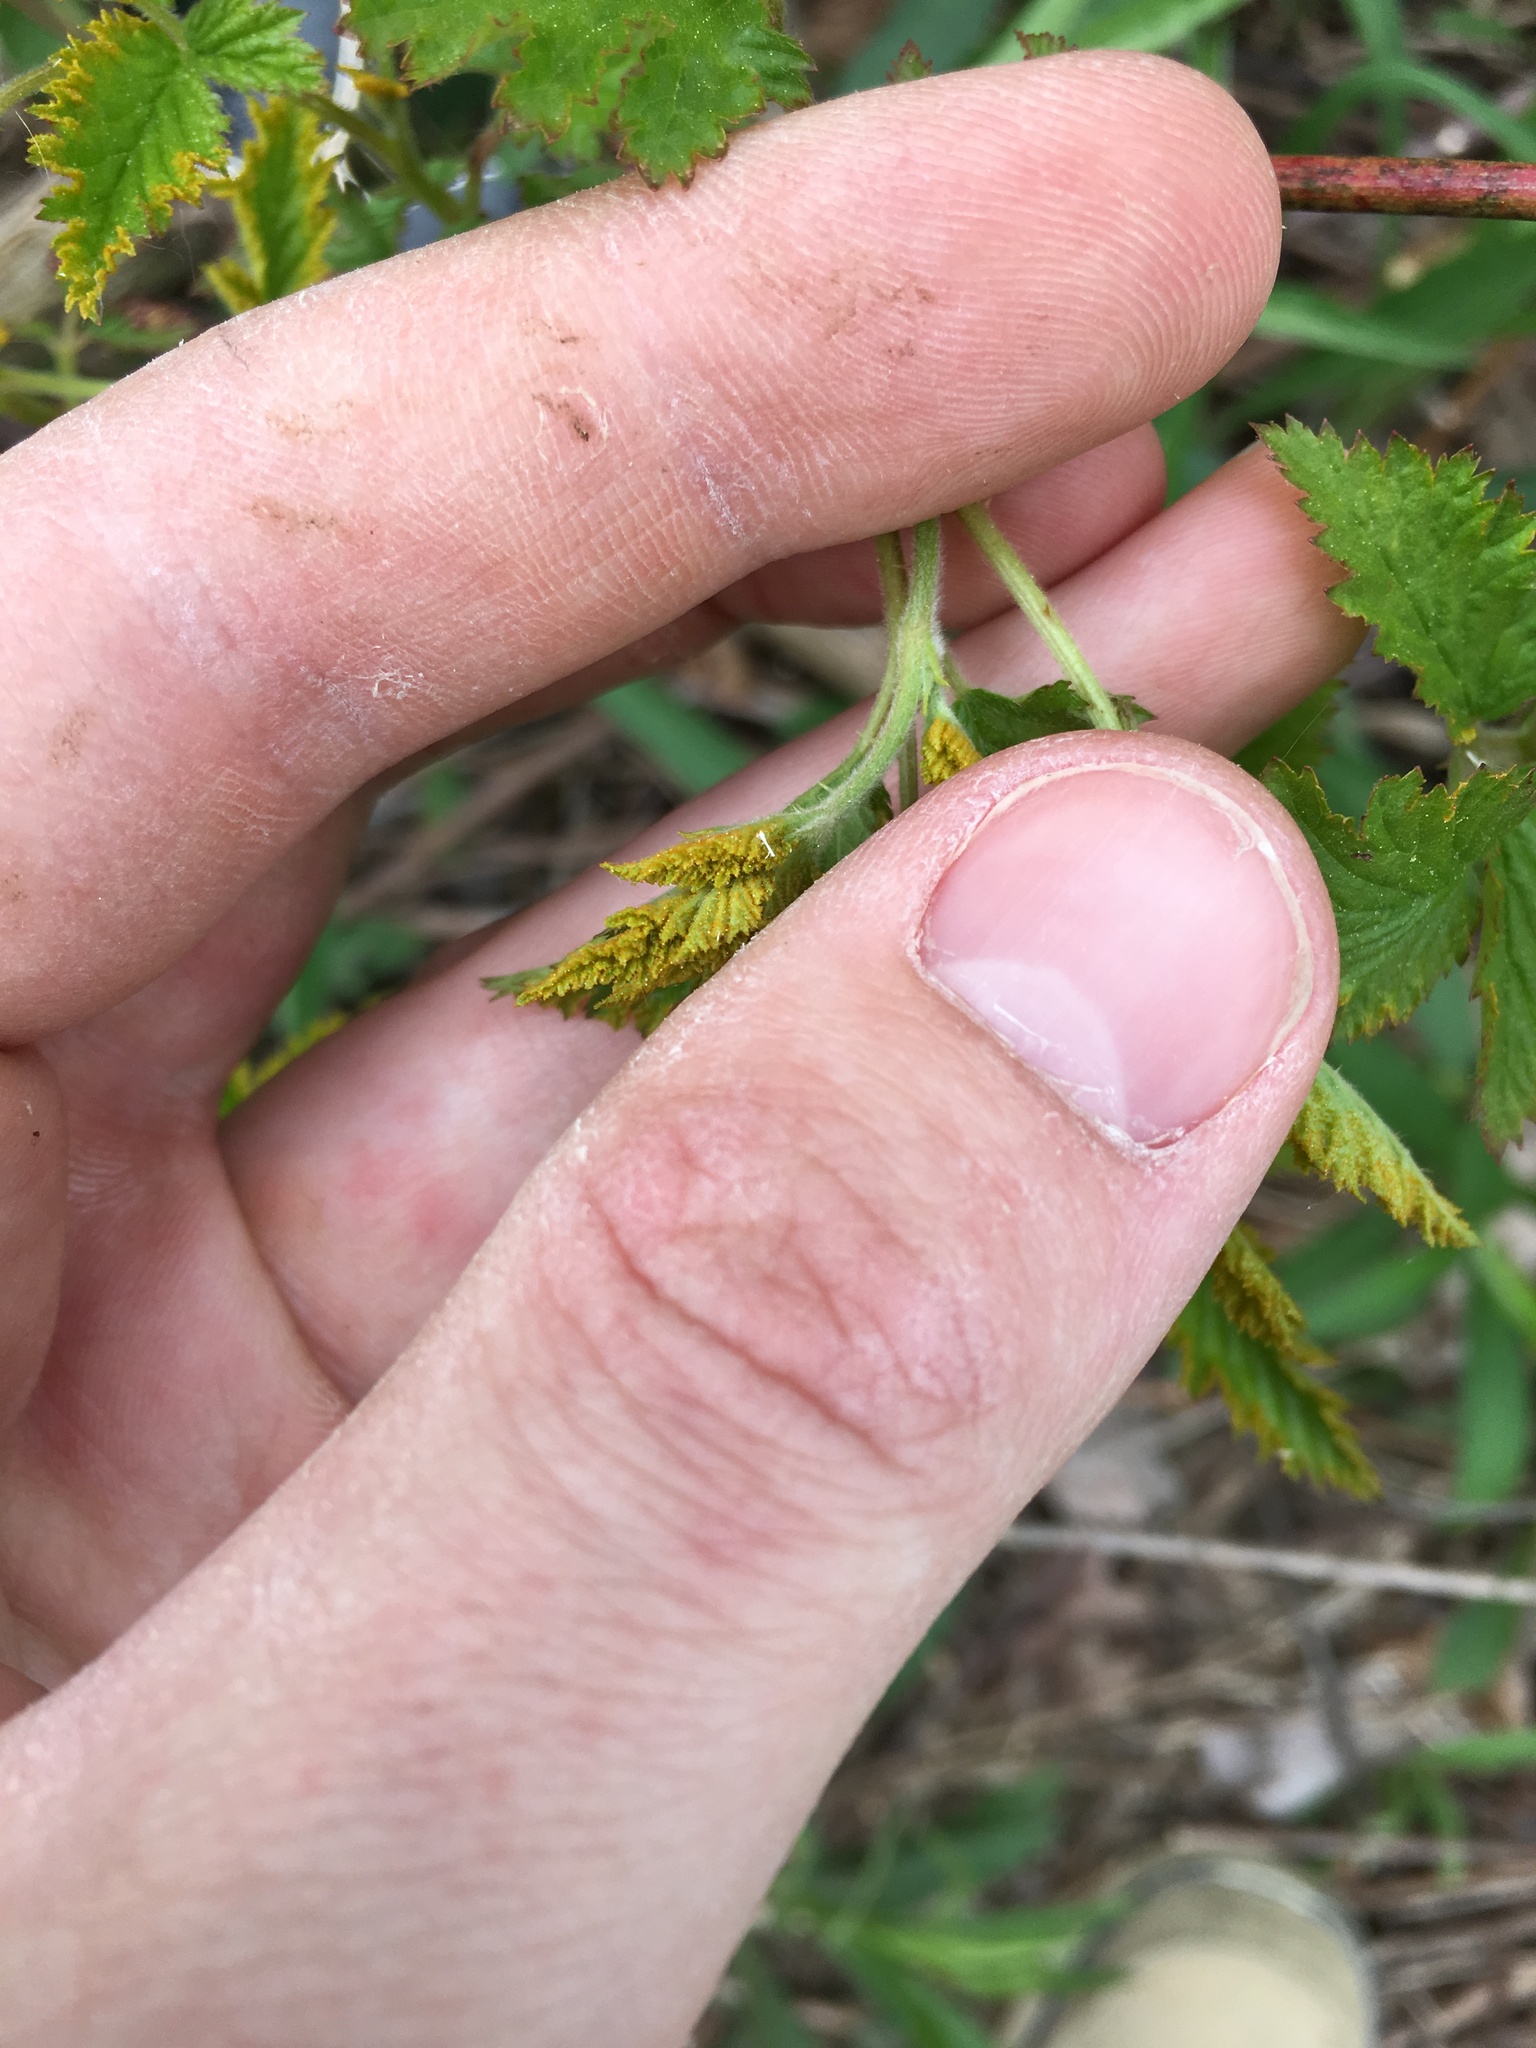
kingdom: Fungi
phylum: Basidiomycota
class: Pucciniomycetes
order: Pucciniales
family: Phragmidiaceae
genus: Arthuriomyces
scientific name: Arthuriomyces peckianus
